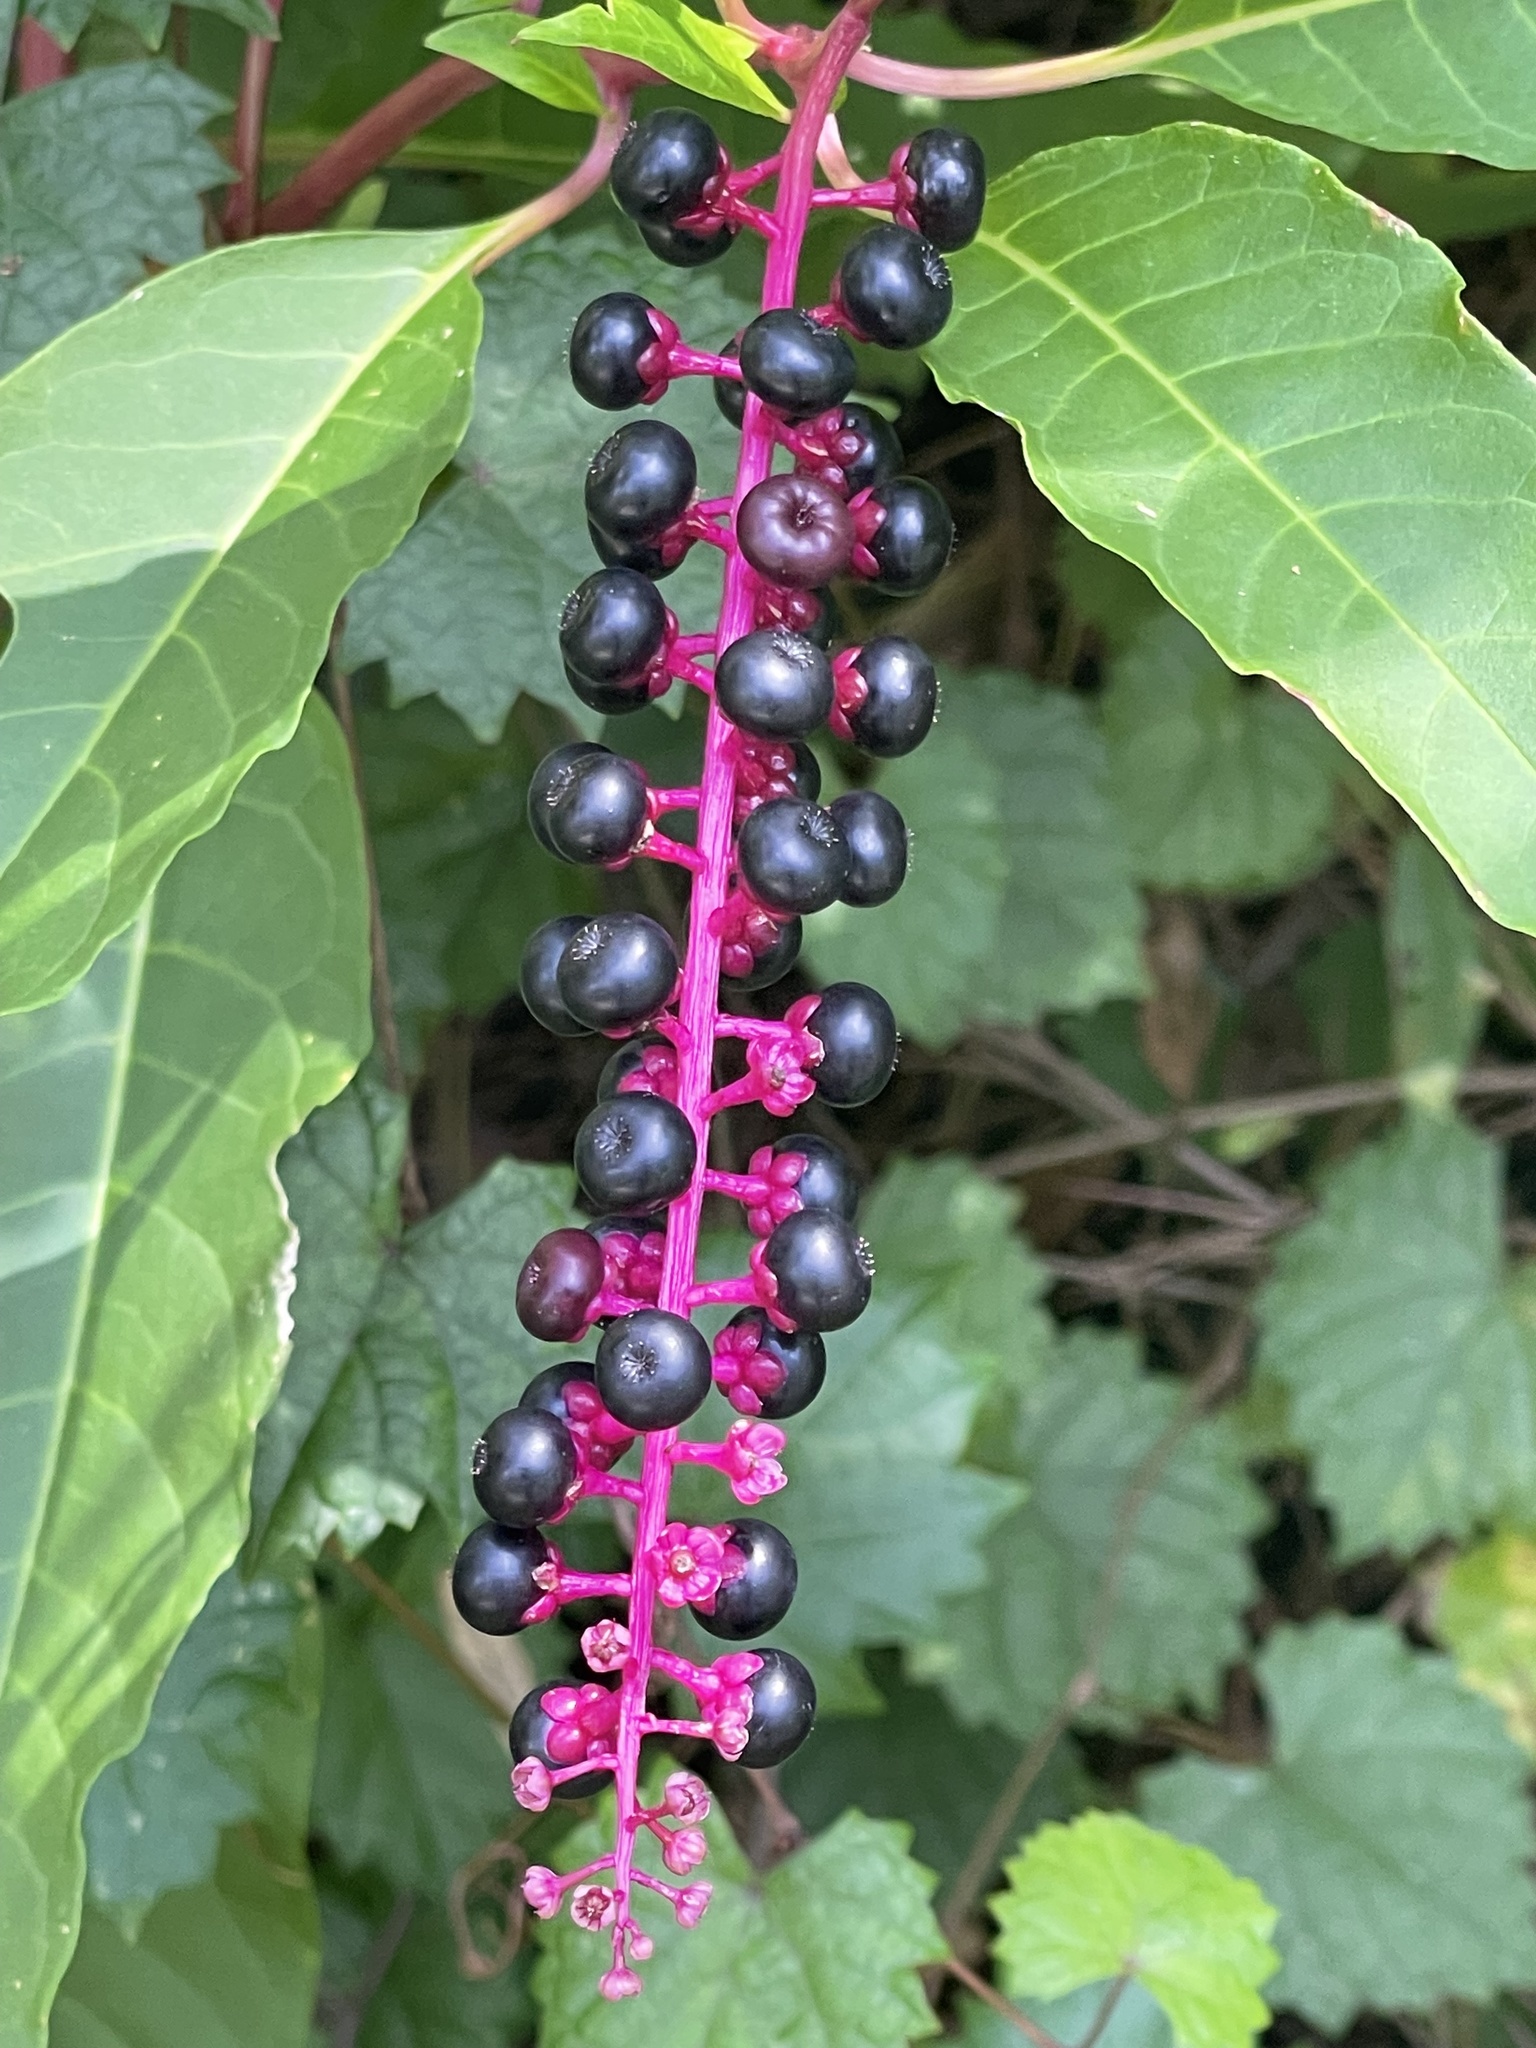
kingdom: Plantae
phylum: Tracheophyta
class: Magnoliopsida
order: Caryophyllales
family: Phytolaccaceae
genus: Phytolacca
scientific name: Phytolacca americana
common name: American pokeweed
